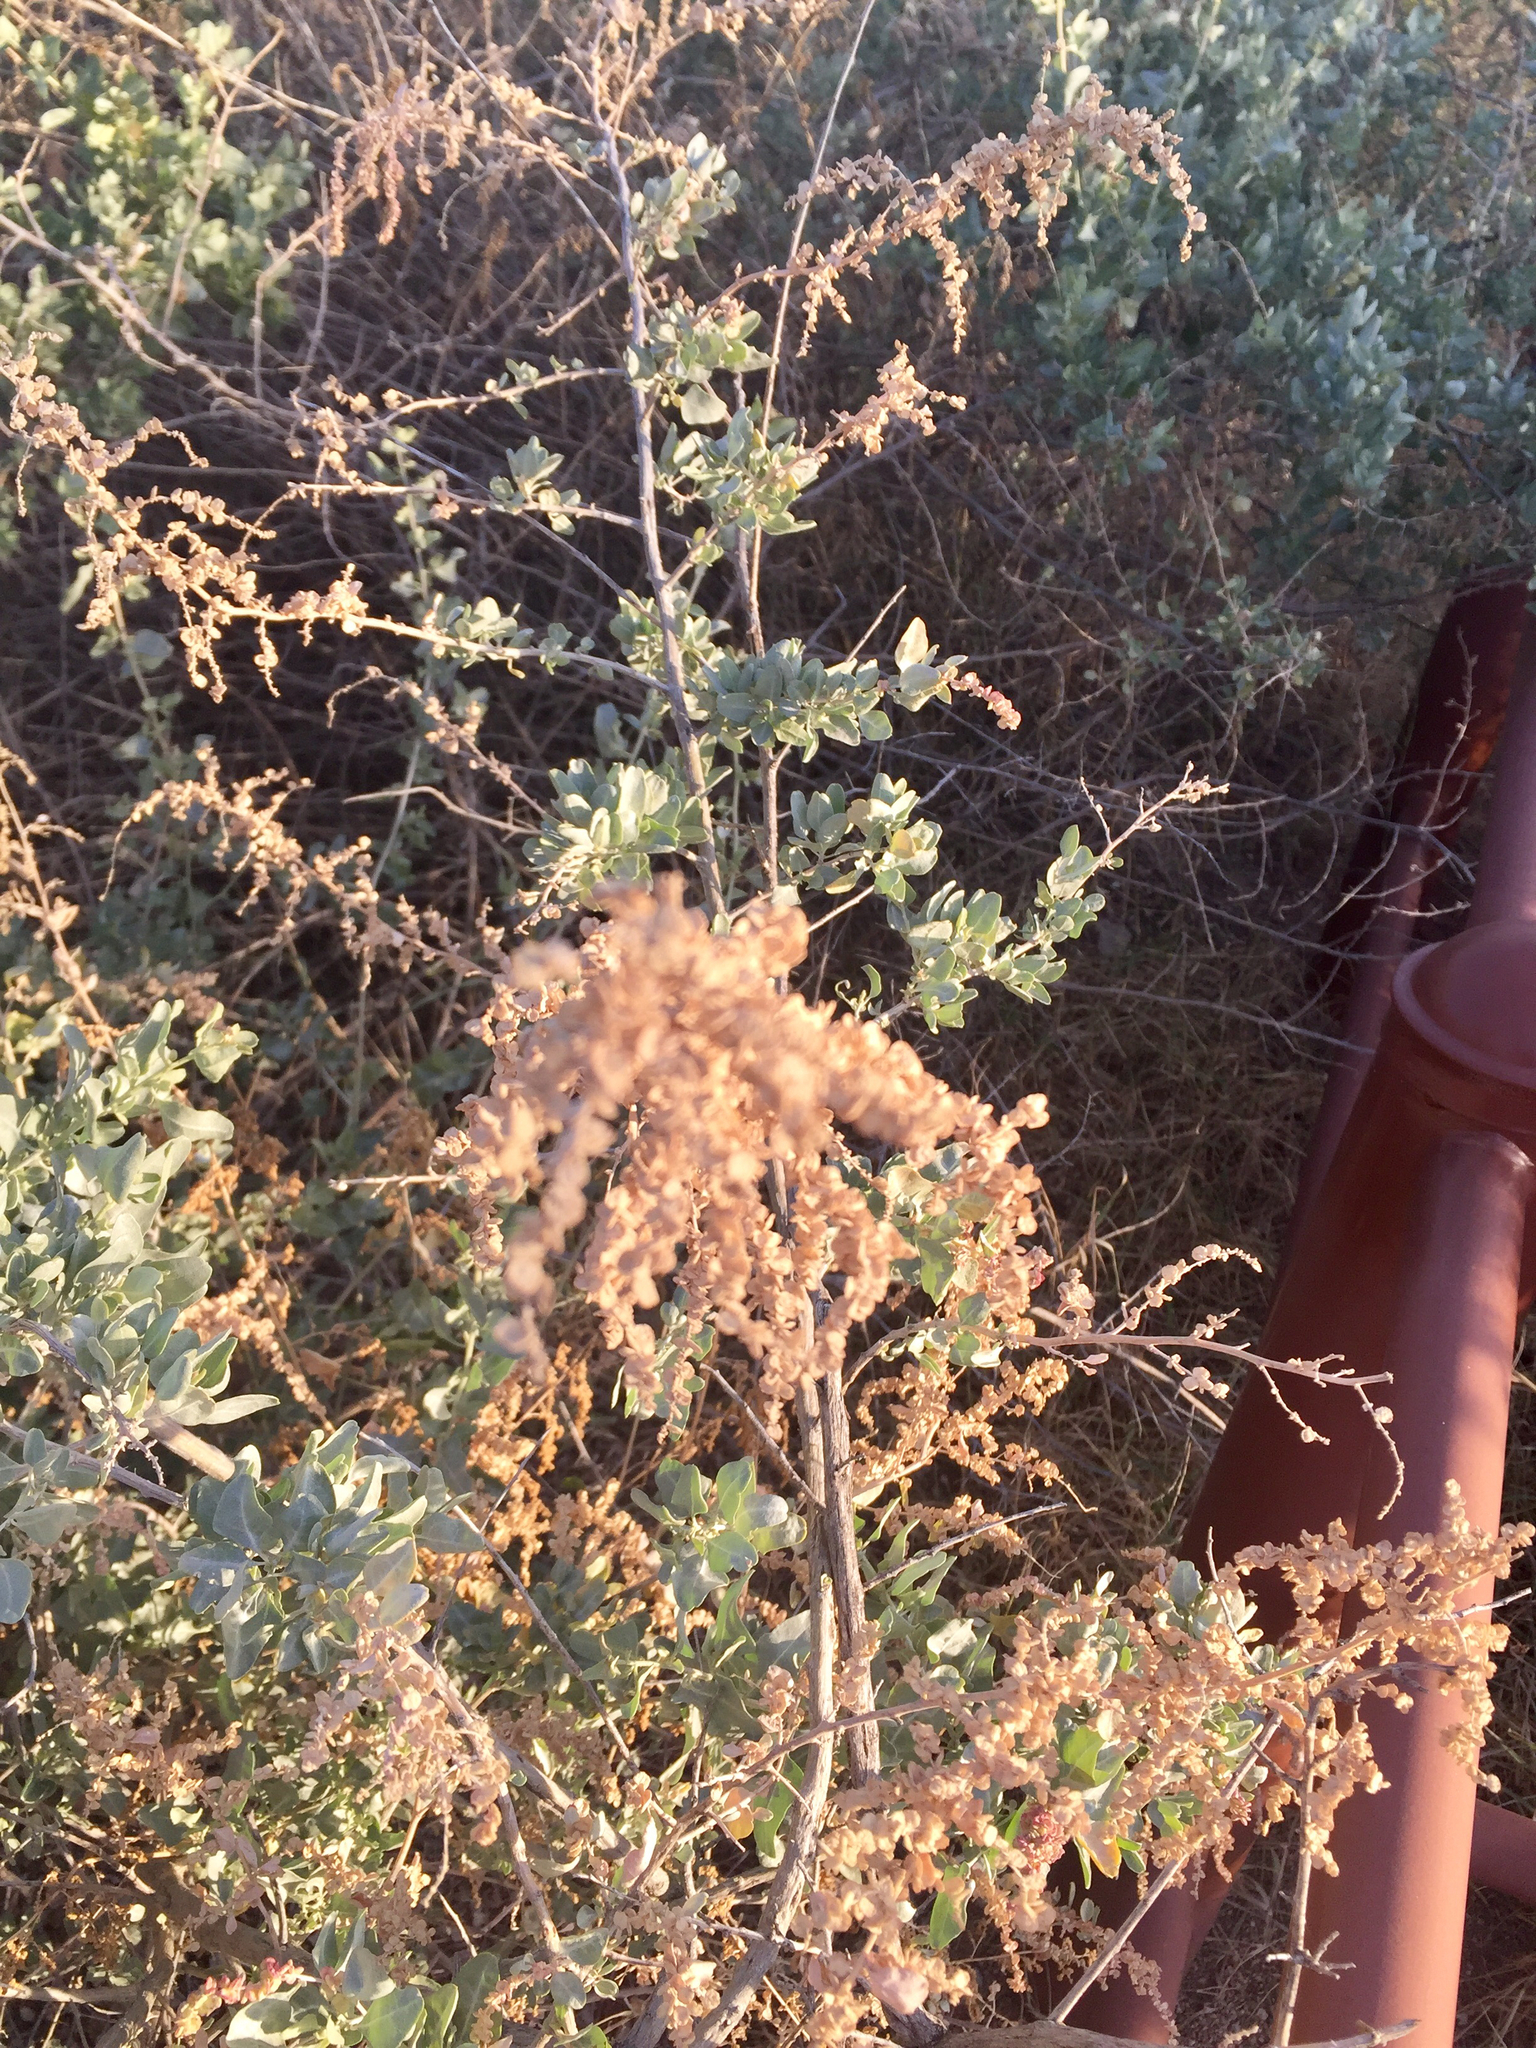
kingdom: Plantae
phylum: Tracheophyta
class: Magnoliopsida
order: Caryophyllales
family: Amaranthaceae
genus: Atriplex
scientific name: Atriplex canescens
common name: Four-wing saltbush
